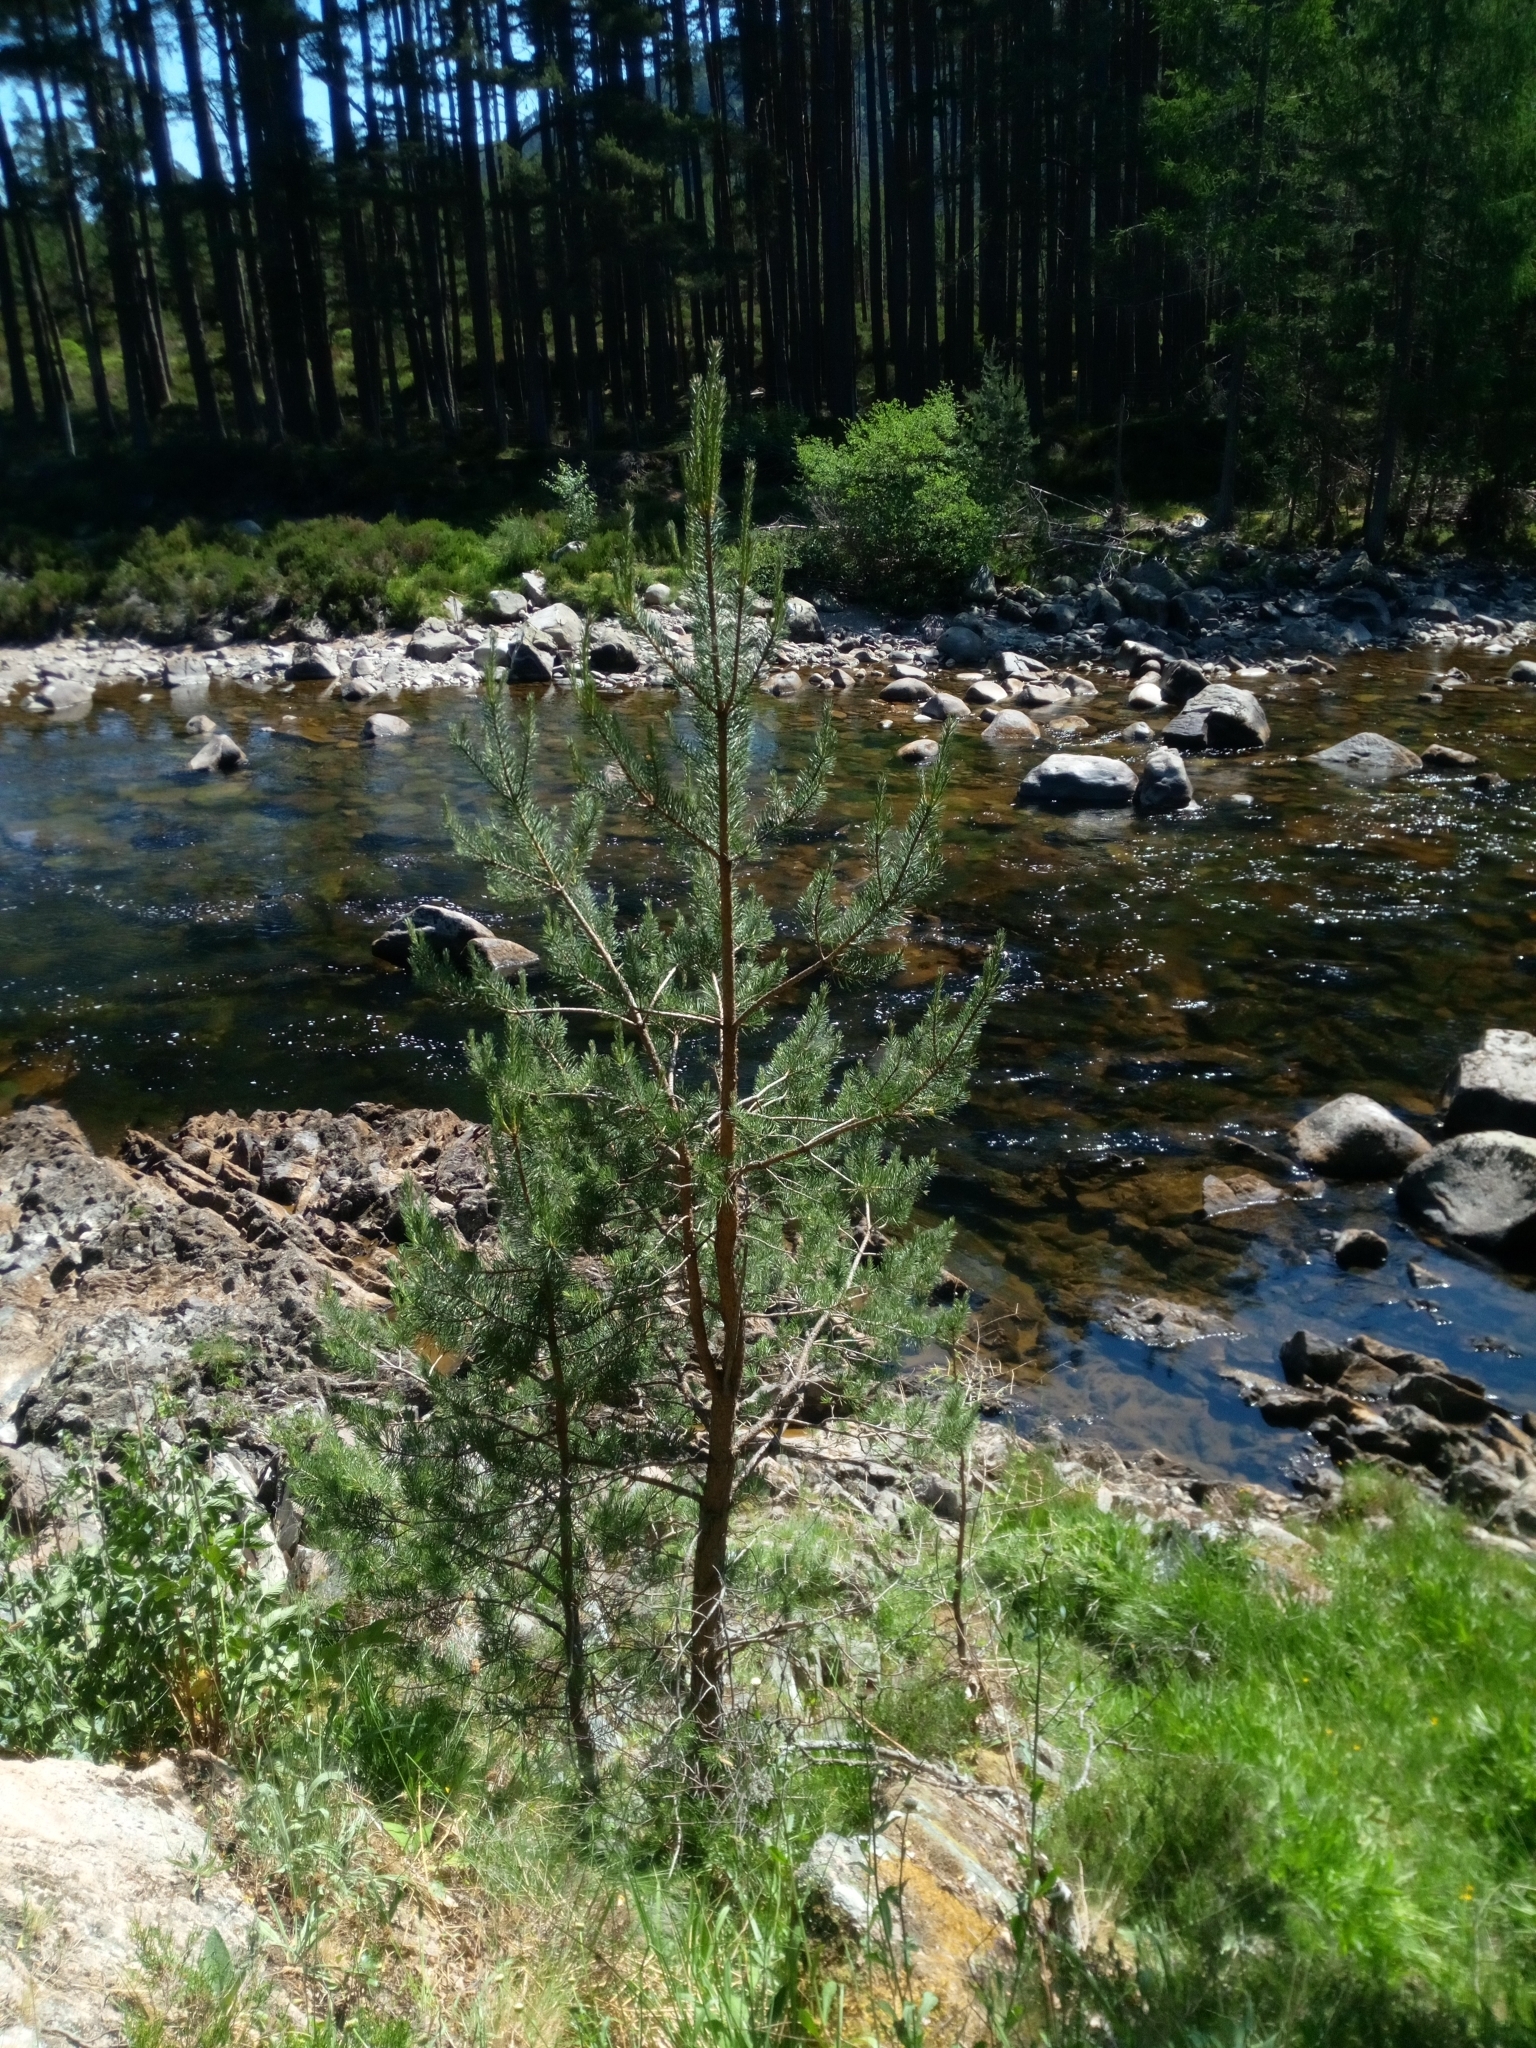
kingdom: Plantae
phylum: Tracheophyta
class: Pinopsida
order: Pinales
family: Pinaceae
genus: Pinus
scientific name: Pinus sylvestris
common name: Scots pine
